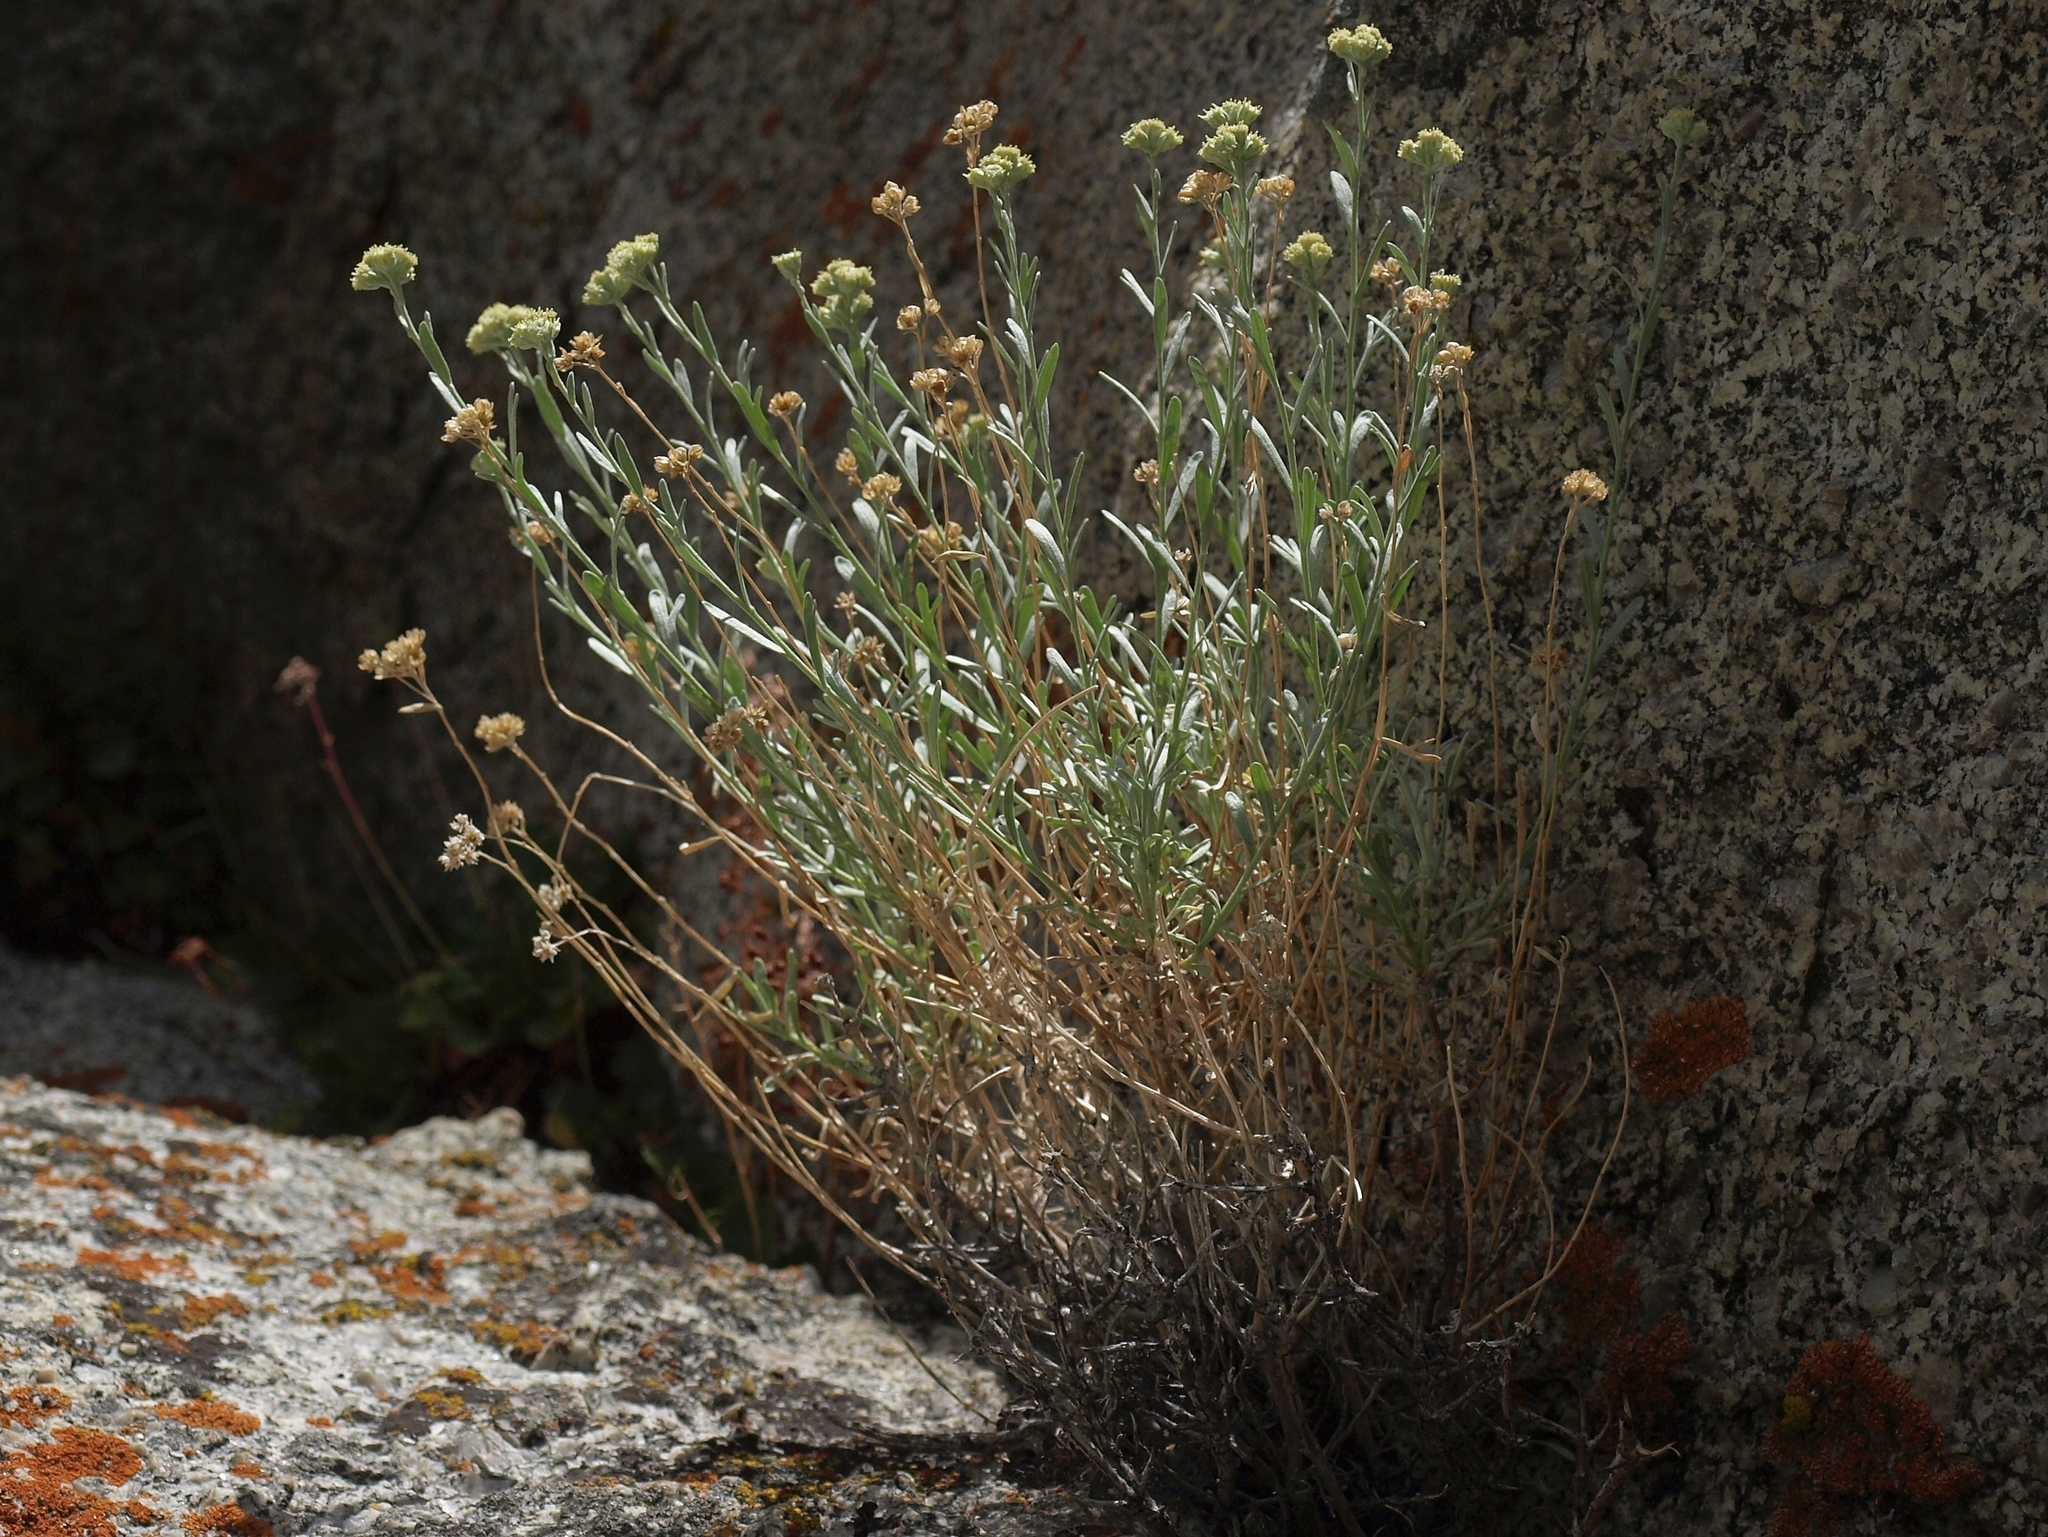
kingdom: Plantae
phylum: Tracheophyta
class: Magnoliopsida
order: Asterales
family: Asteraceae
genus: Artemisia
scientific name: Artemisia albicans
